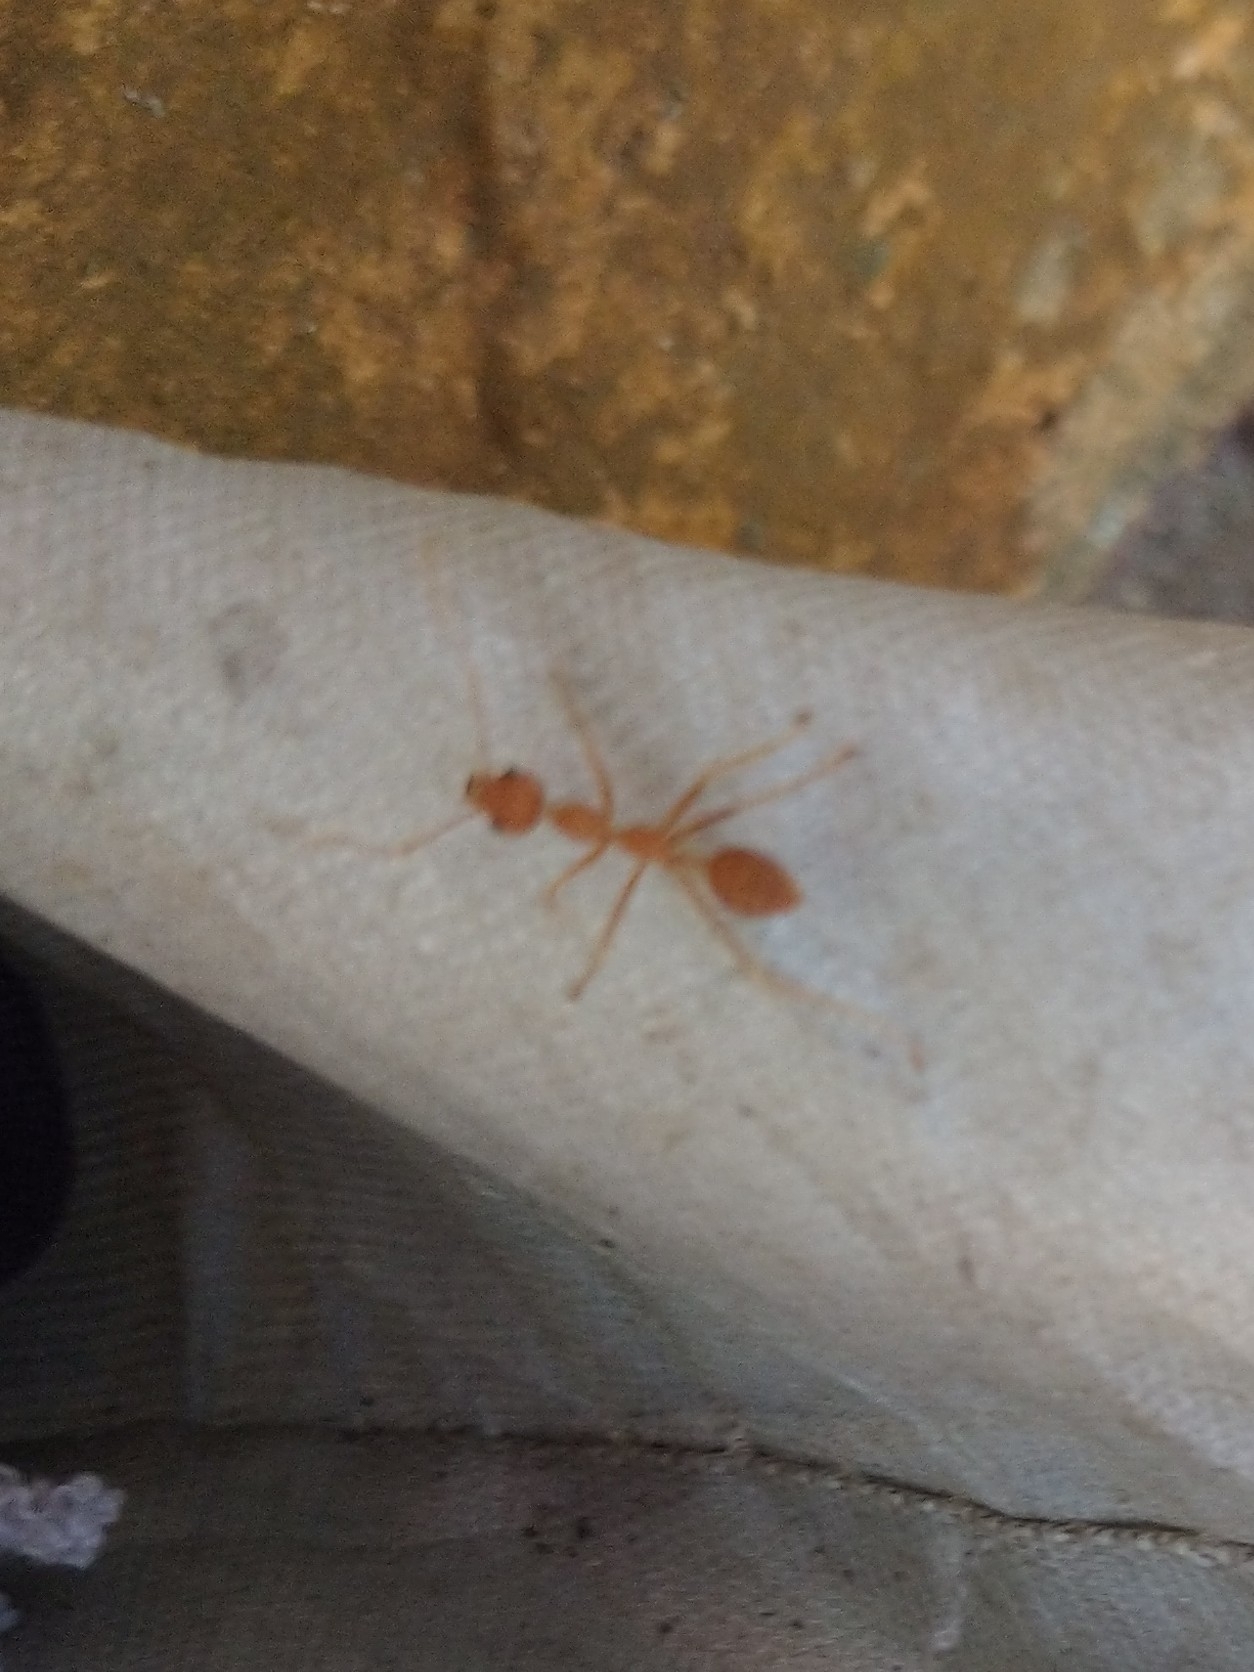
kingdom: Animalia
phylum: Arthropoda
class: Insecta
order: Hymenoptera
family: Formicidae
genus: Oecophylla
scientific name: Oecophylla smaragdina
